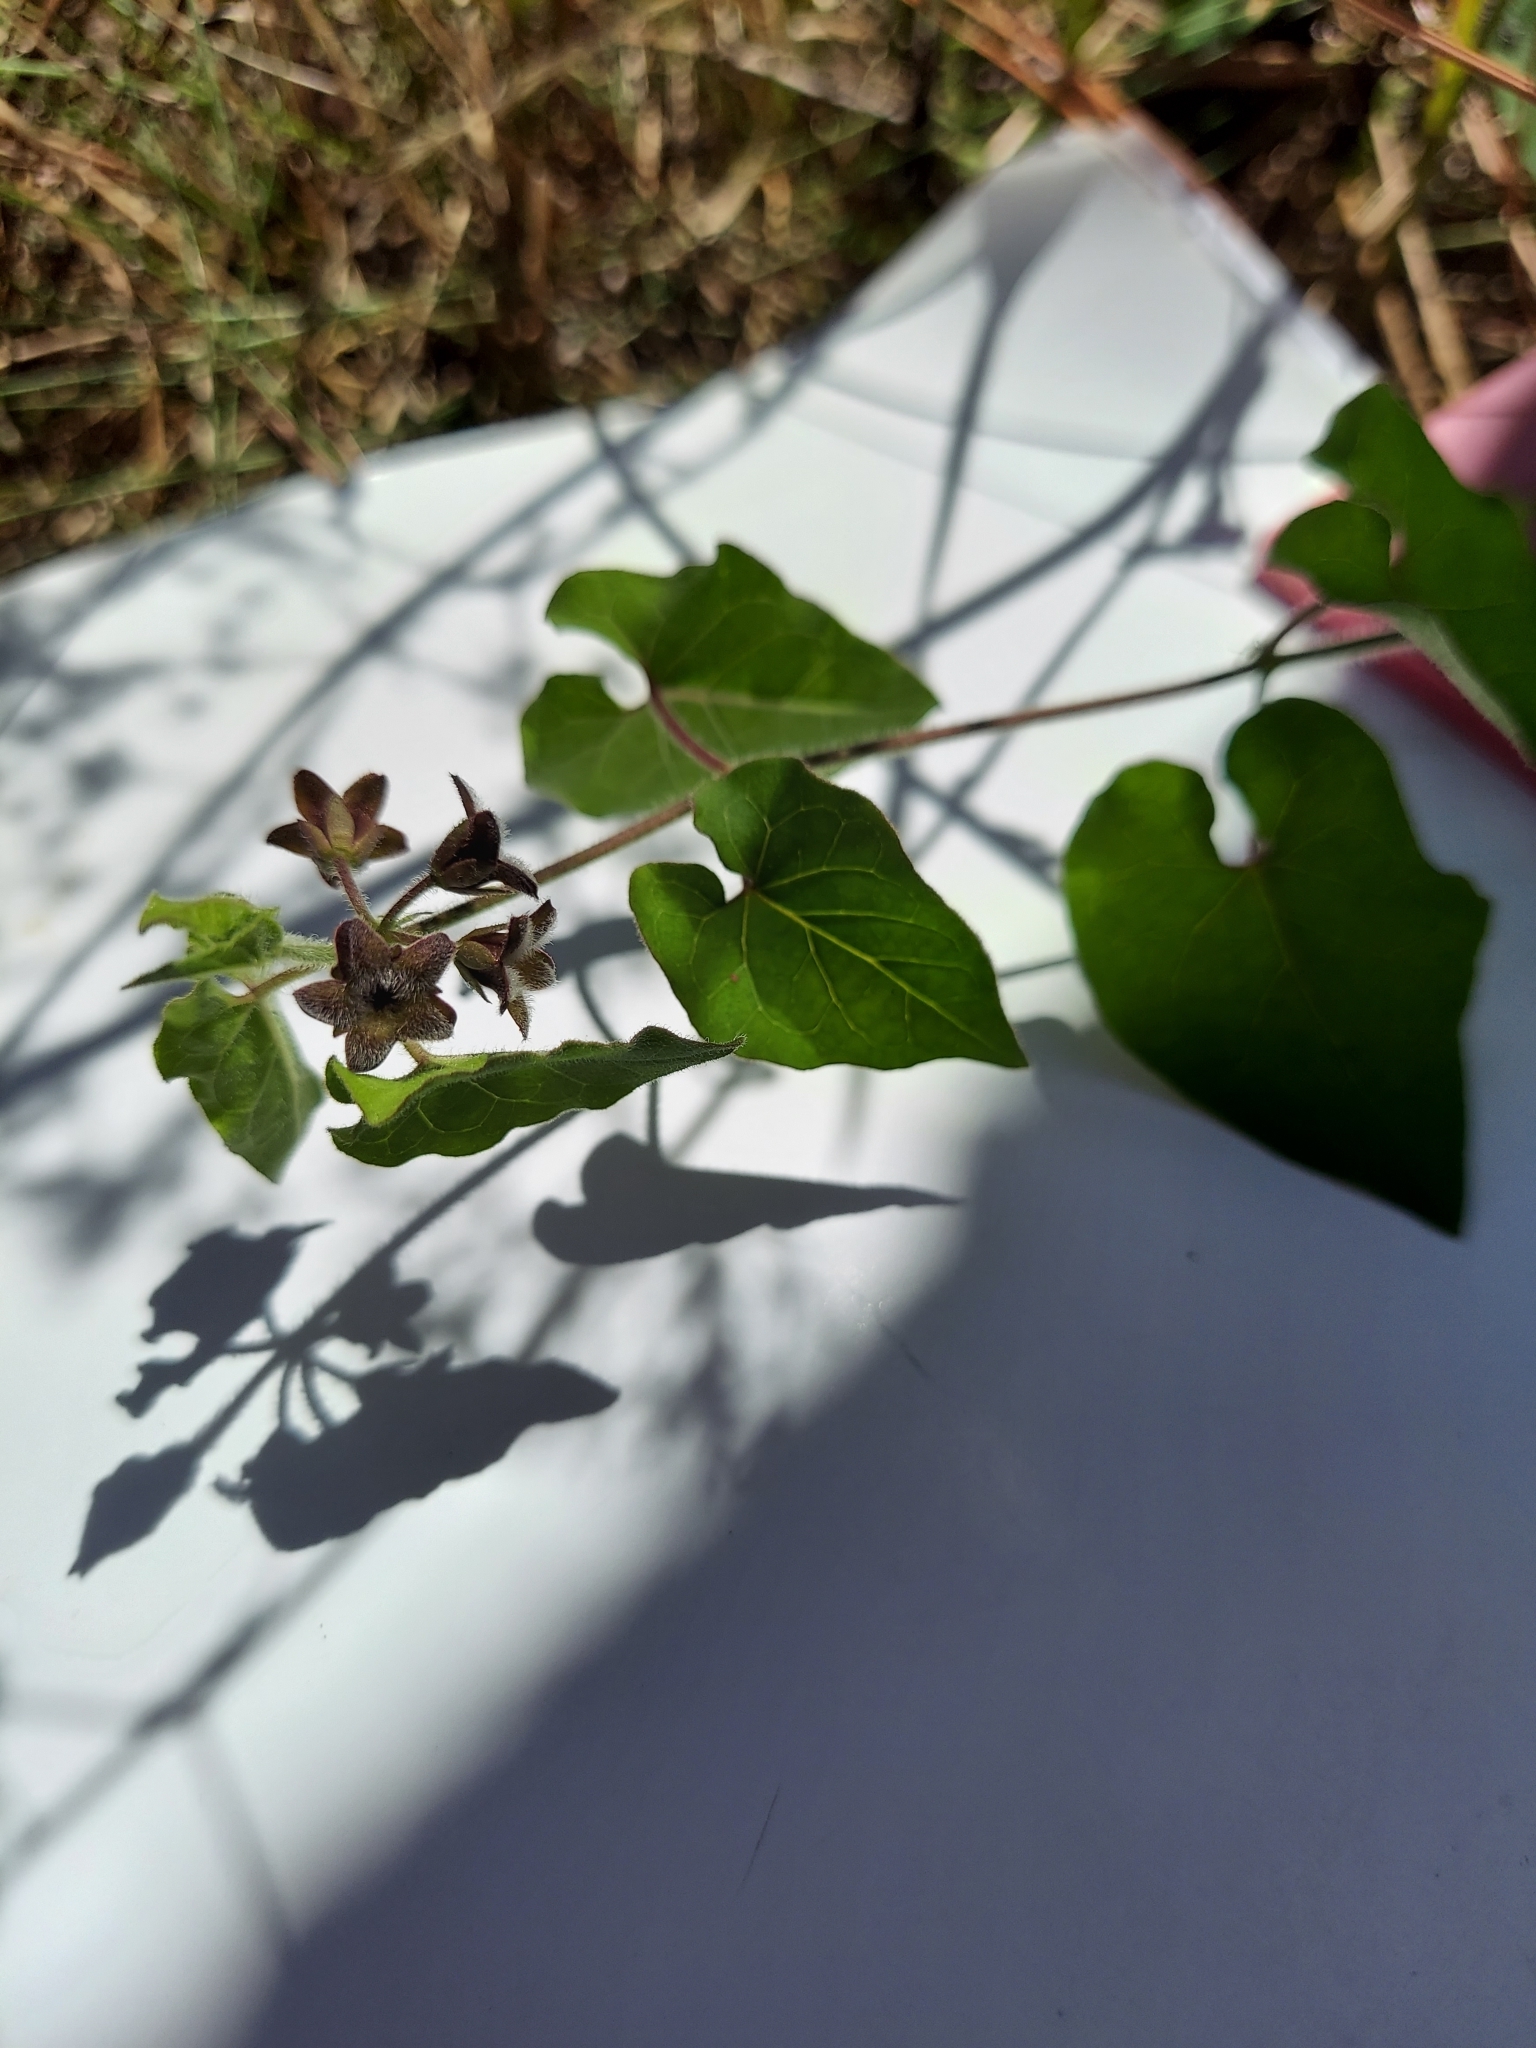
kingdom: Plantae
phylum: Tracheophyta
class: Magnoliopsida
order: Gentianales
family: Apocynaceae
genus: Chthamalia
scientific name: Chthamalia pubiflora
